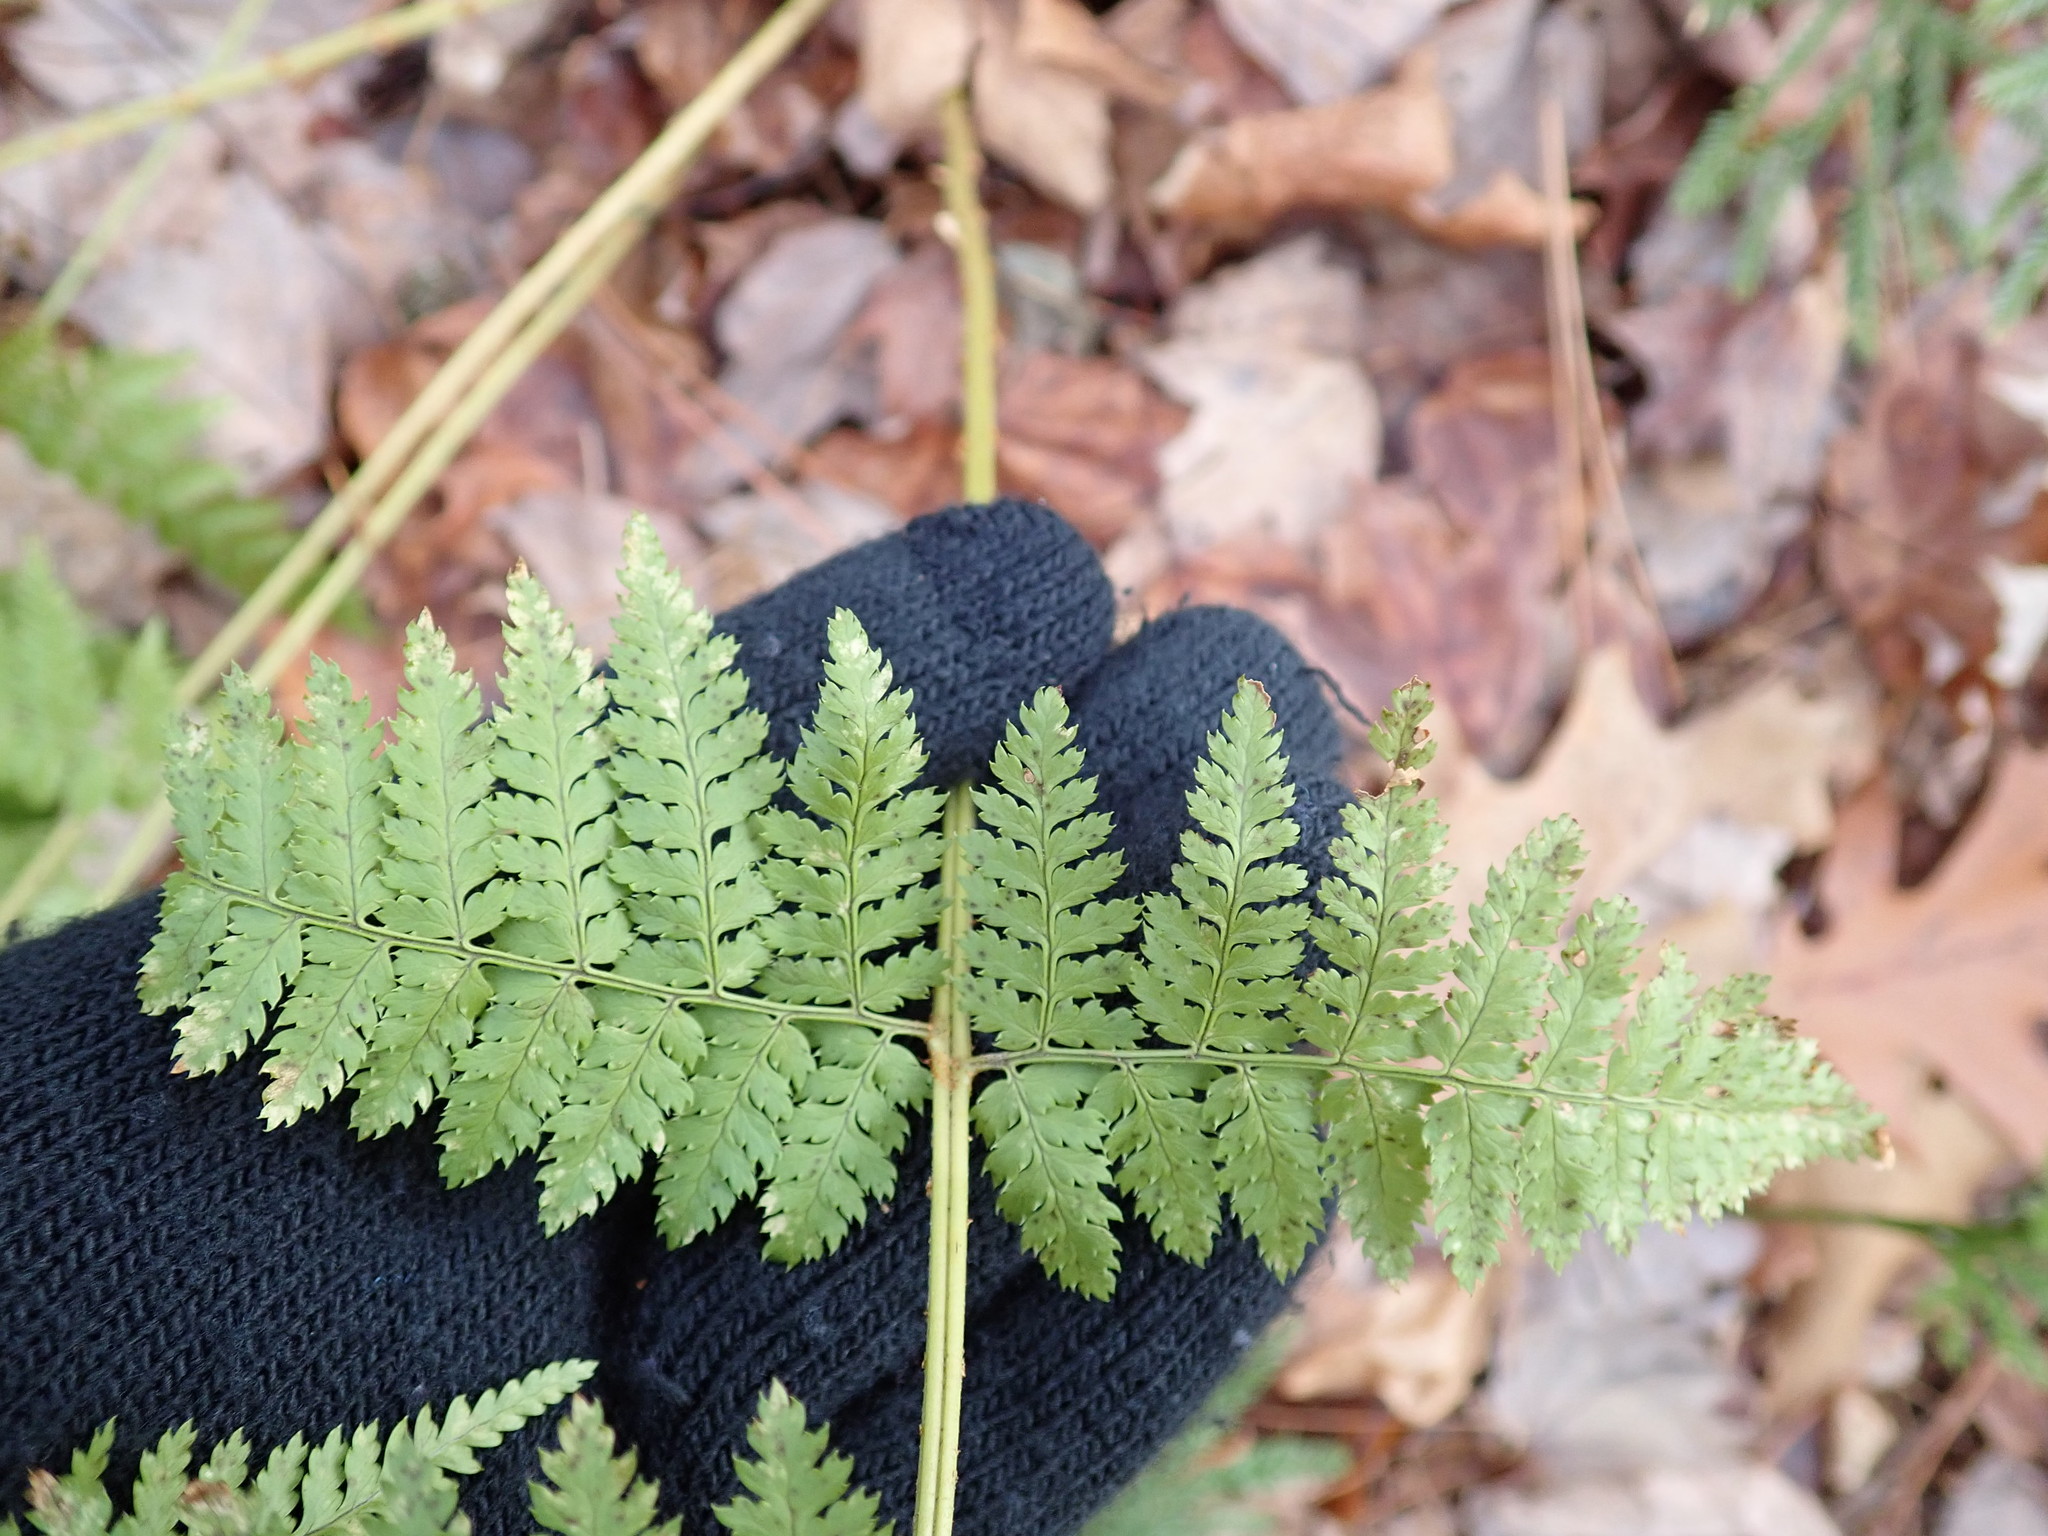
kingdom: Plantae
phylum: Tracheophyta
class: Polypodiopsida
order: Polypodiales
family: Dryopteridaceae
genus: Dryopteris
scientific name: Dryopteris intermedia
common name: Evergreen wood fern
